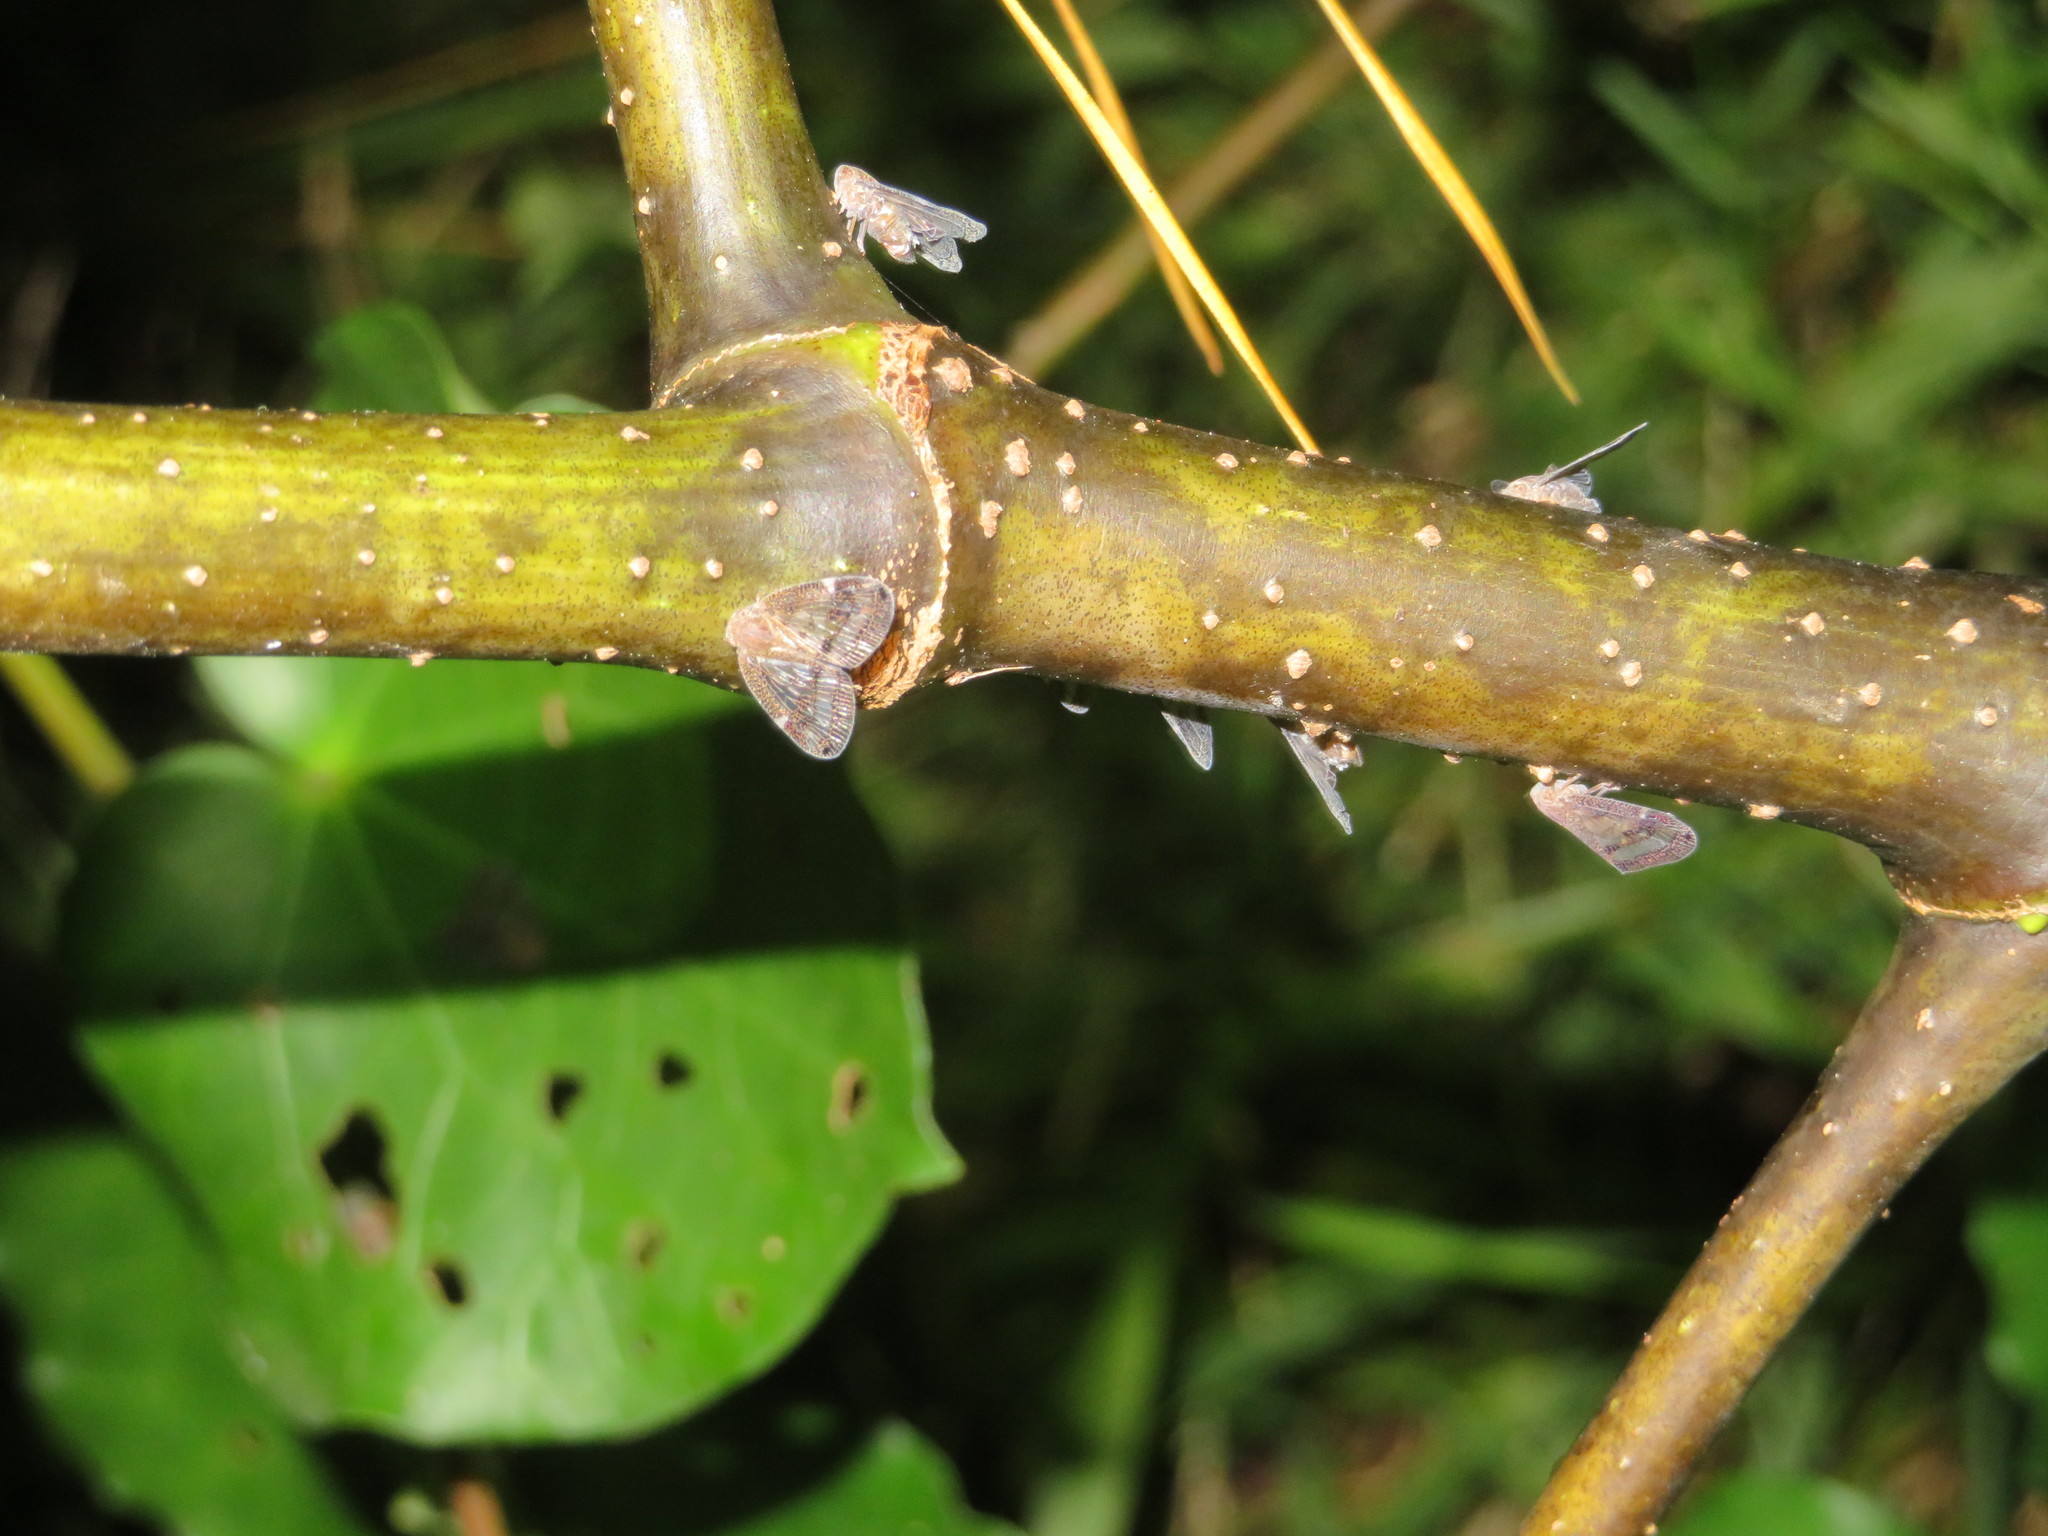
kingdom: Animalia
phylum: Arthropoda
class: Insecta
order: Hemiptera
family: Ricaniidae
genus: Scolypopa
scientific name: Scolypopa australis
